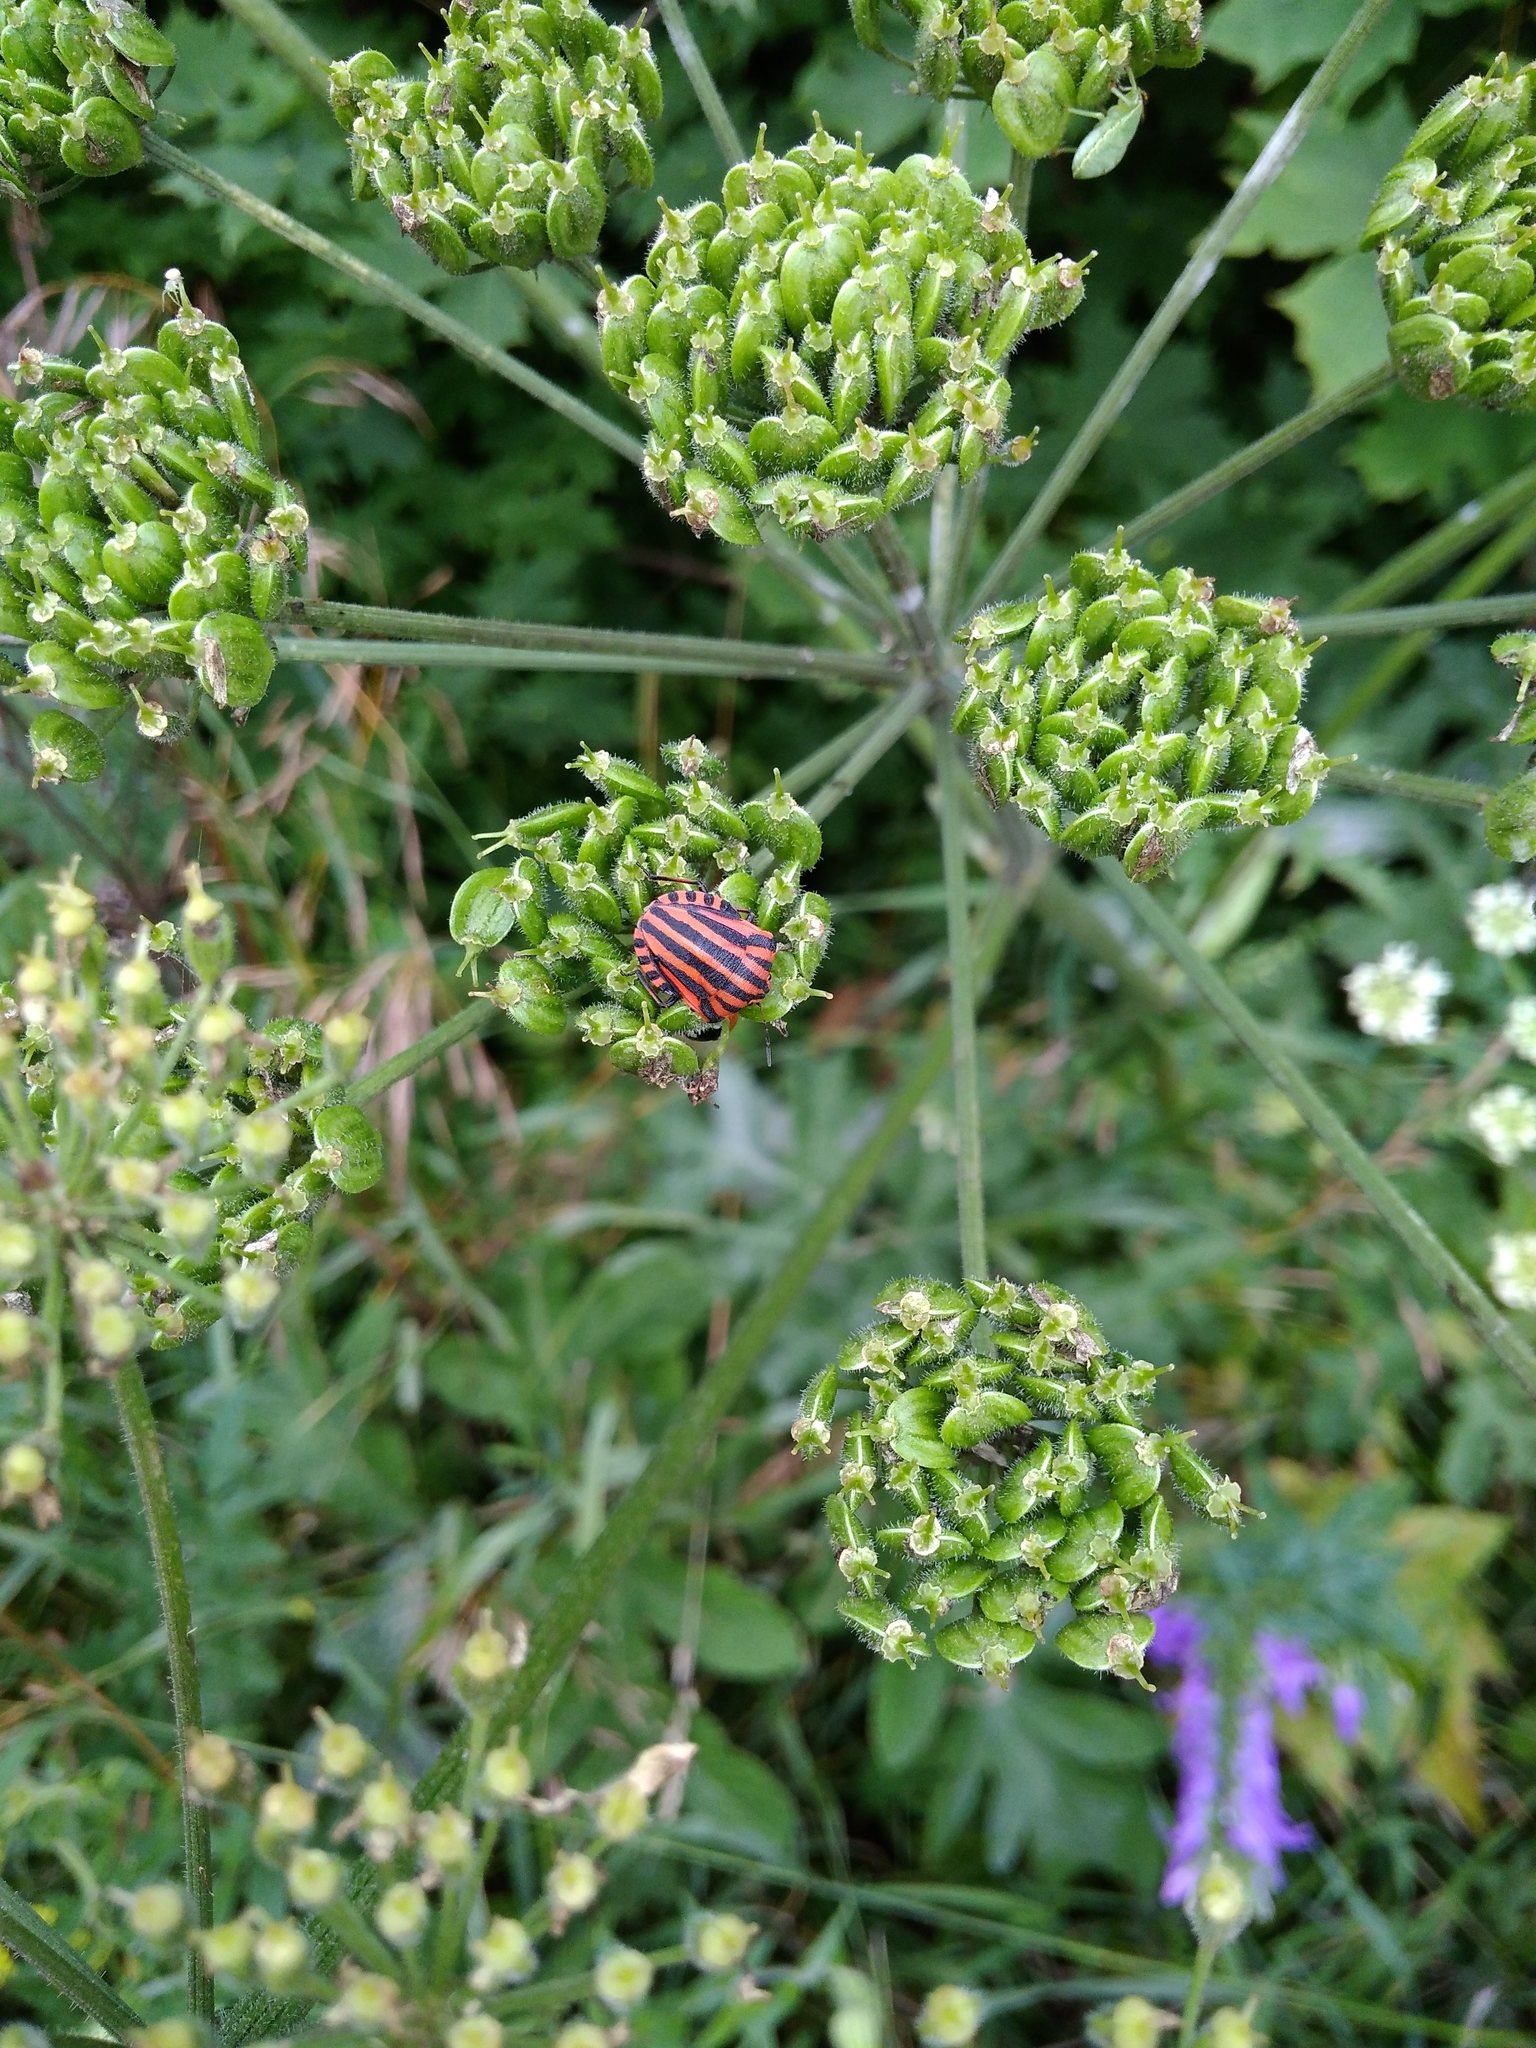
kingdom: Animalia
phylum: Arthropoda
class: Insecta
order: Hemiptera
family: Pentatomidae
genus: Graphosoma
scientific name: Graphosoma italicum
